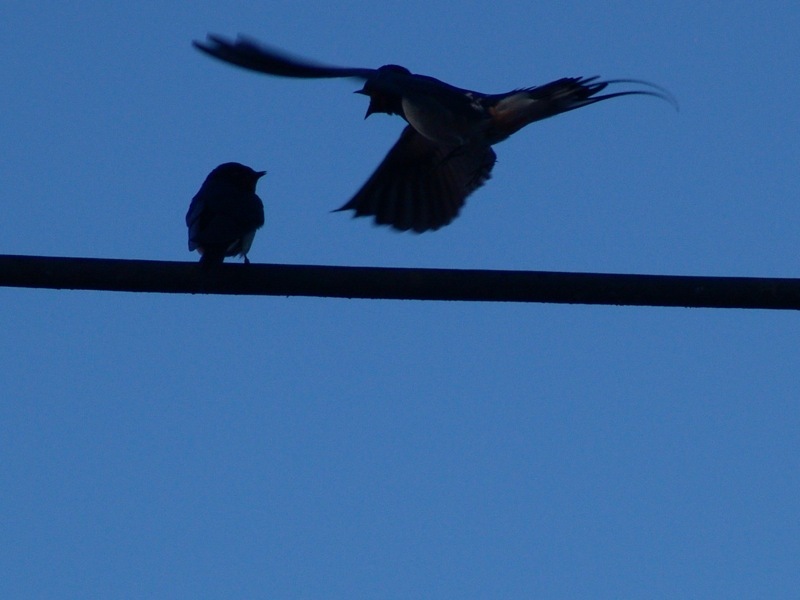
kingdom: Animalia
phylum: Chordata
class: Aves
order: Passeriformes
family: Hirundinidae
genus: Hirundo
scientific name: Hirundo rustica
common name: Barn swallow
